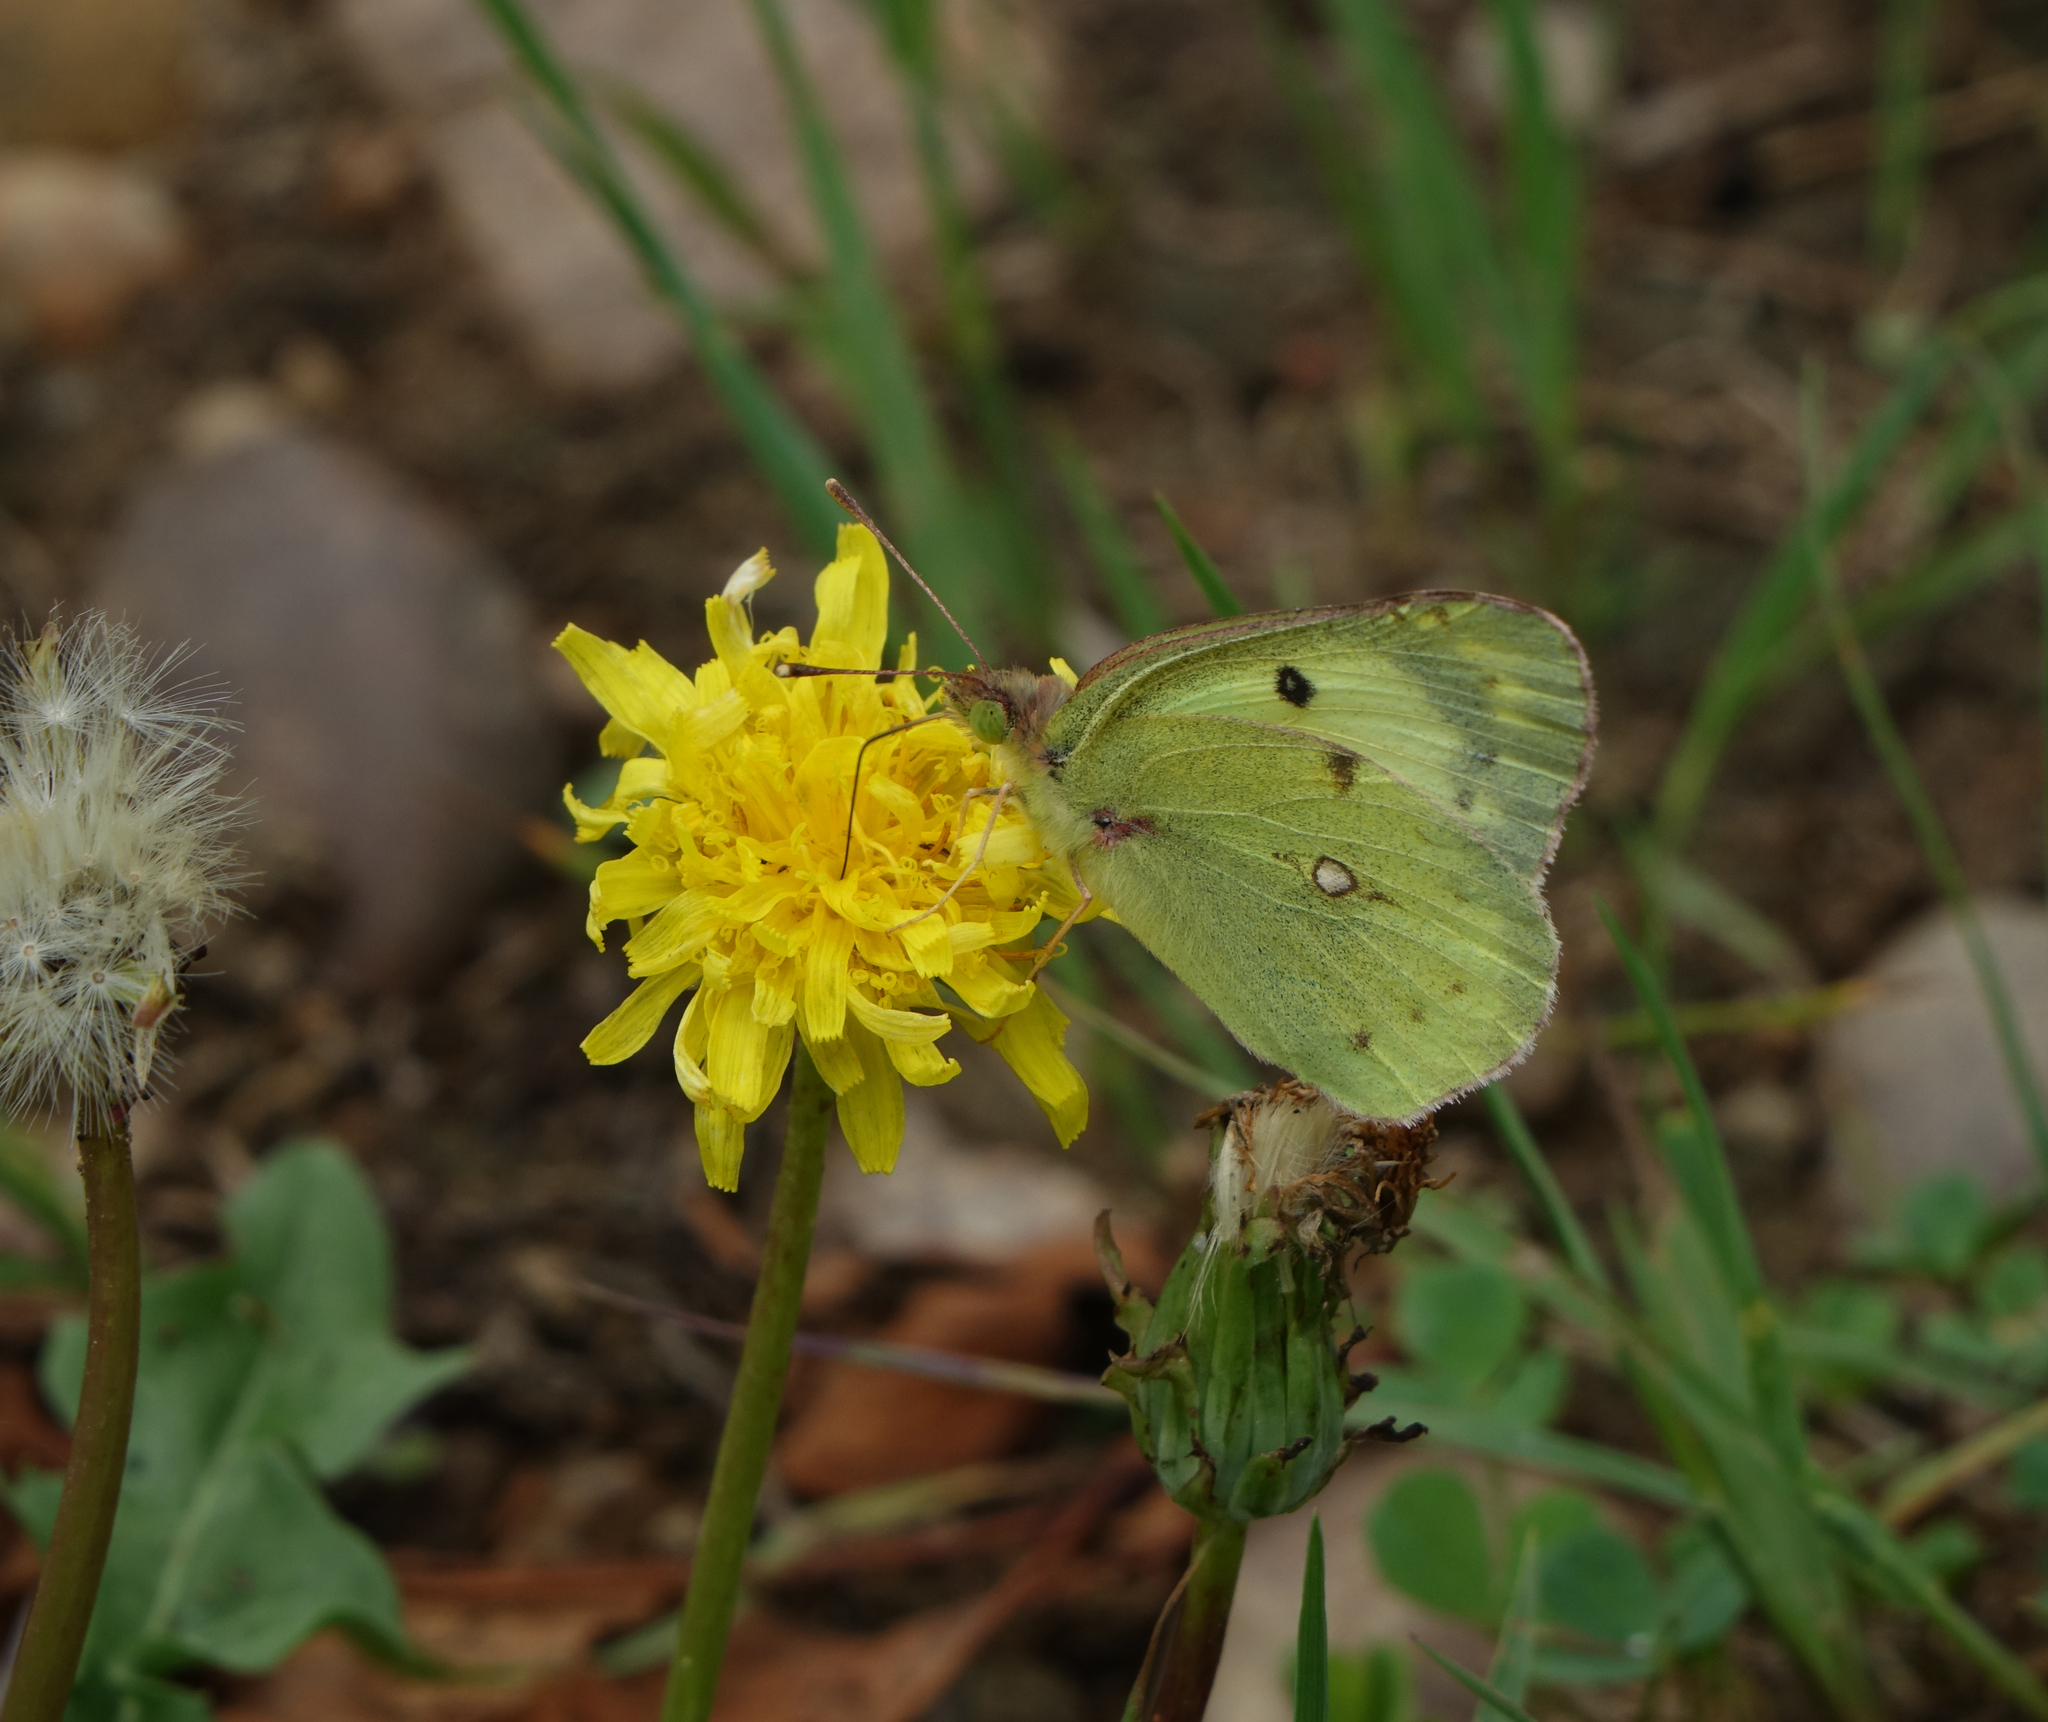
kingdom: Plantae
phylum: Tracheophyta
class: Magnoliopsida
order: Asterales
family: Asteraceae
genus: Taraxacum
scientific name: Taraxacum officinale
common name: Common dandelion
